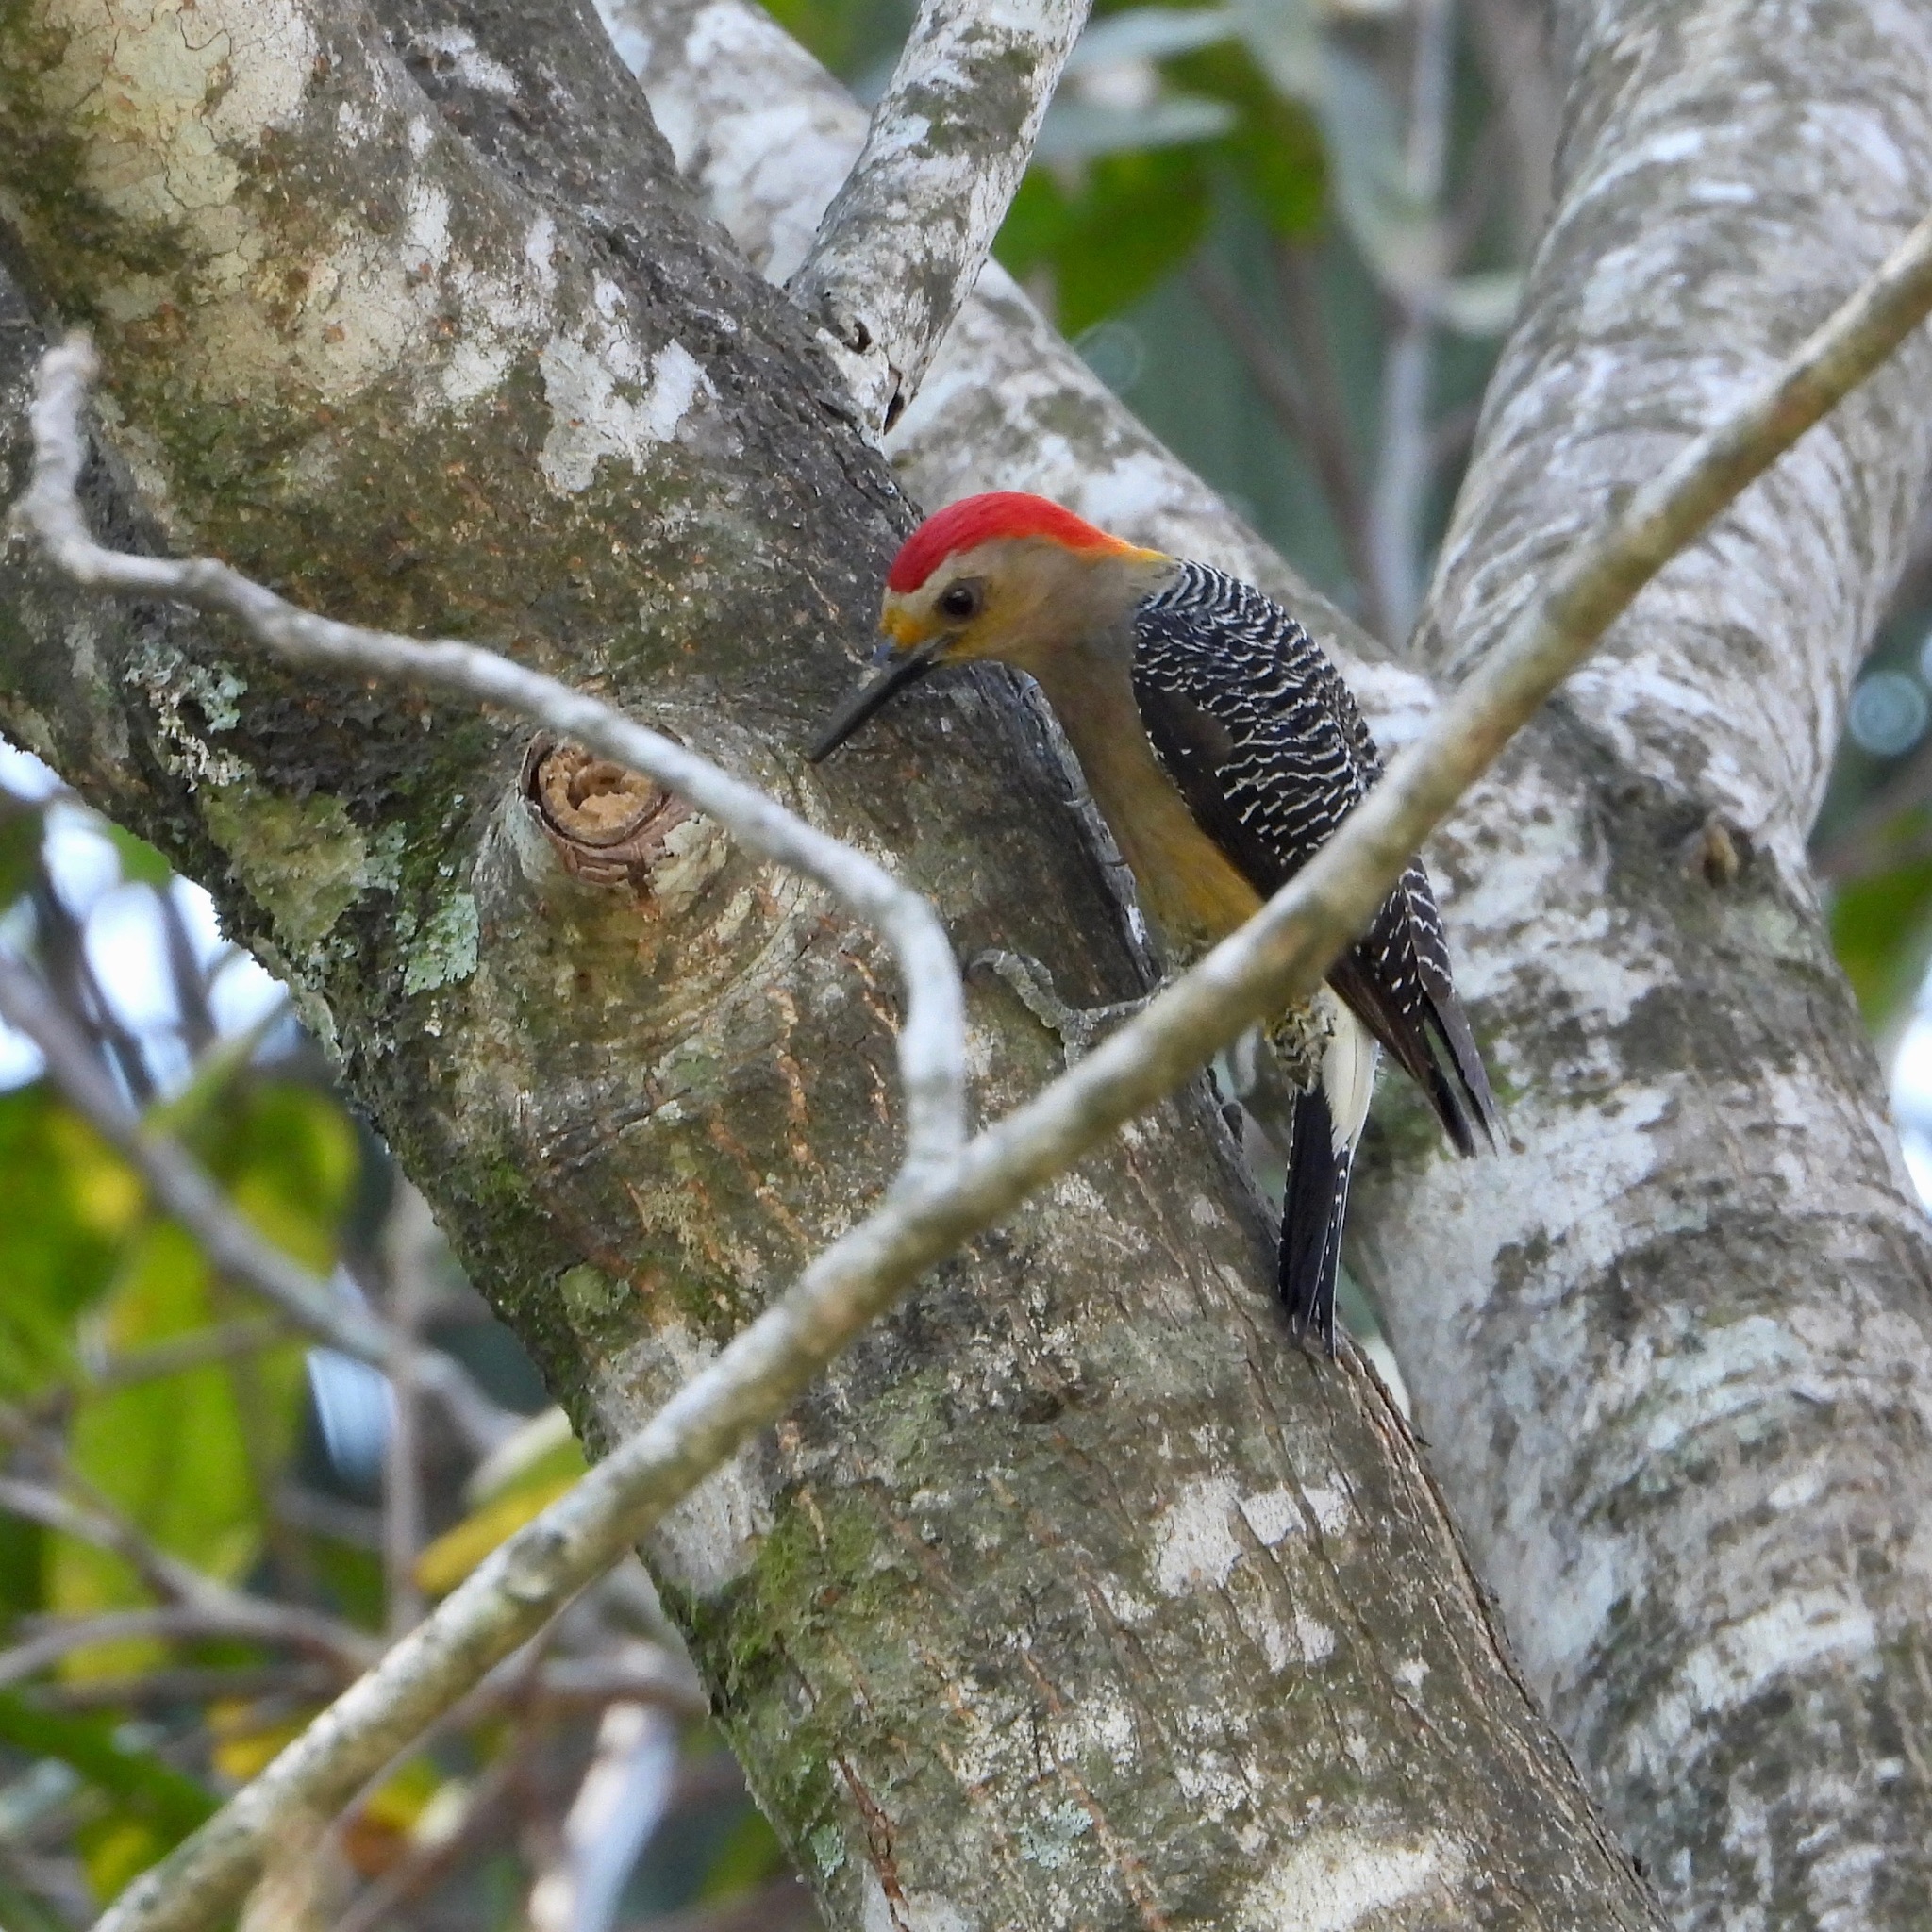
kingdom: Animalia
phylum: Chordata
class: Aves
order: Piciformes
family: Picidae
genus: Melanerpes
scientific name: Melanerpes aurifrons
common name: Golden-fronted woodpecker
